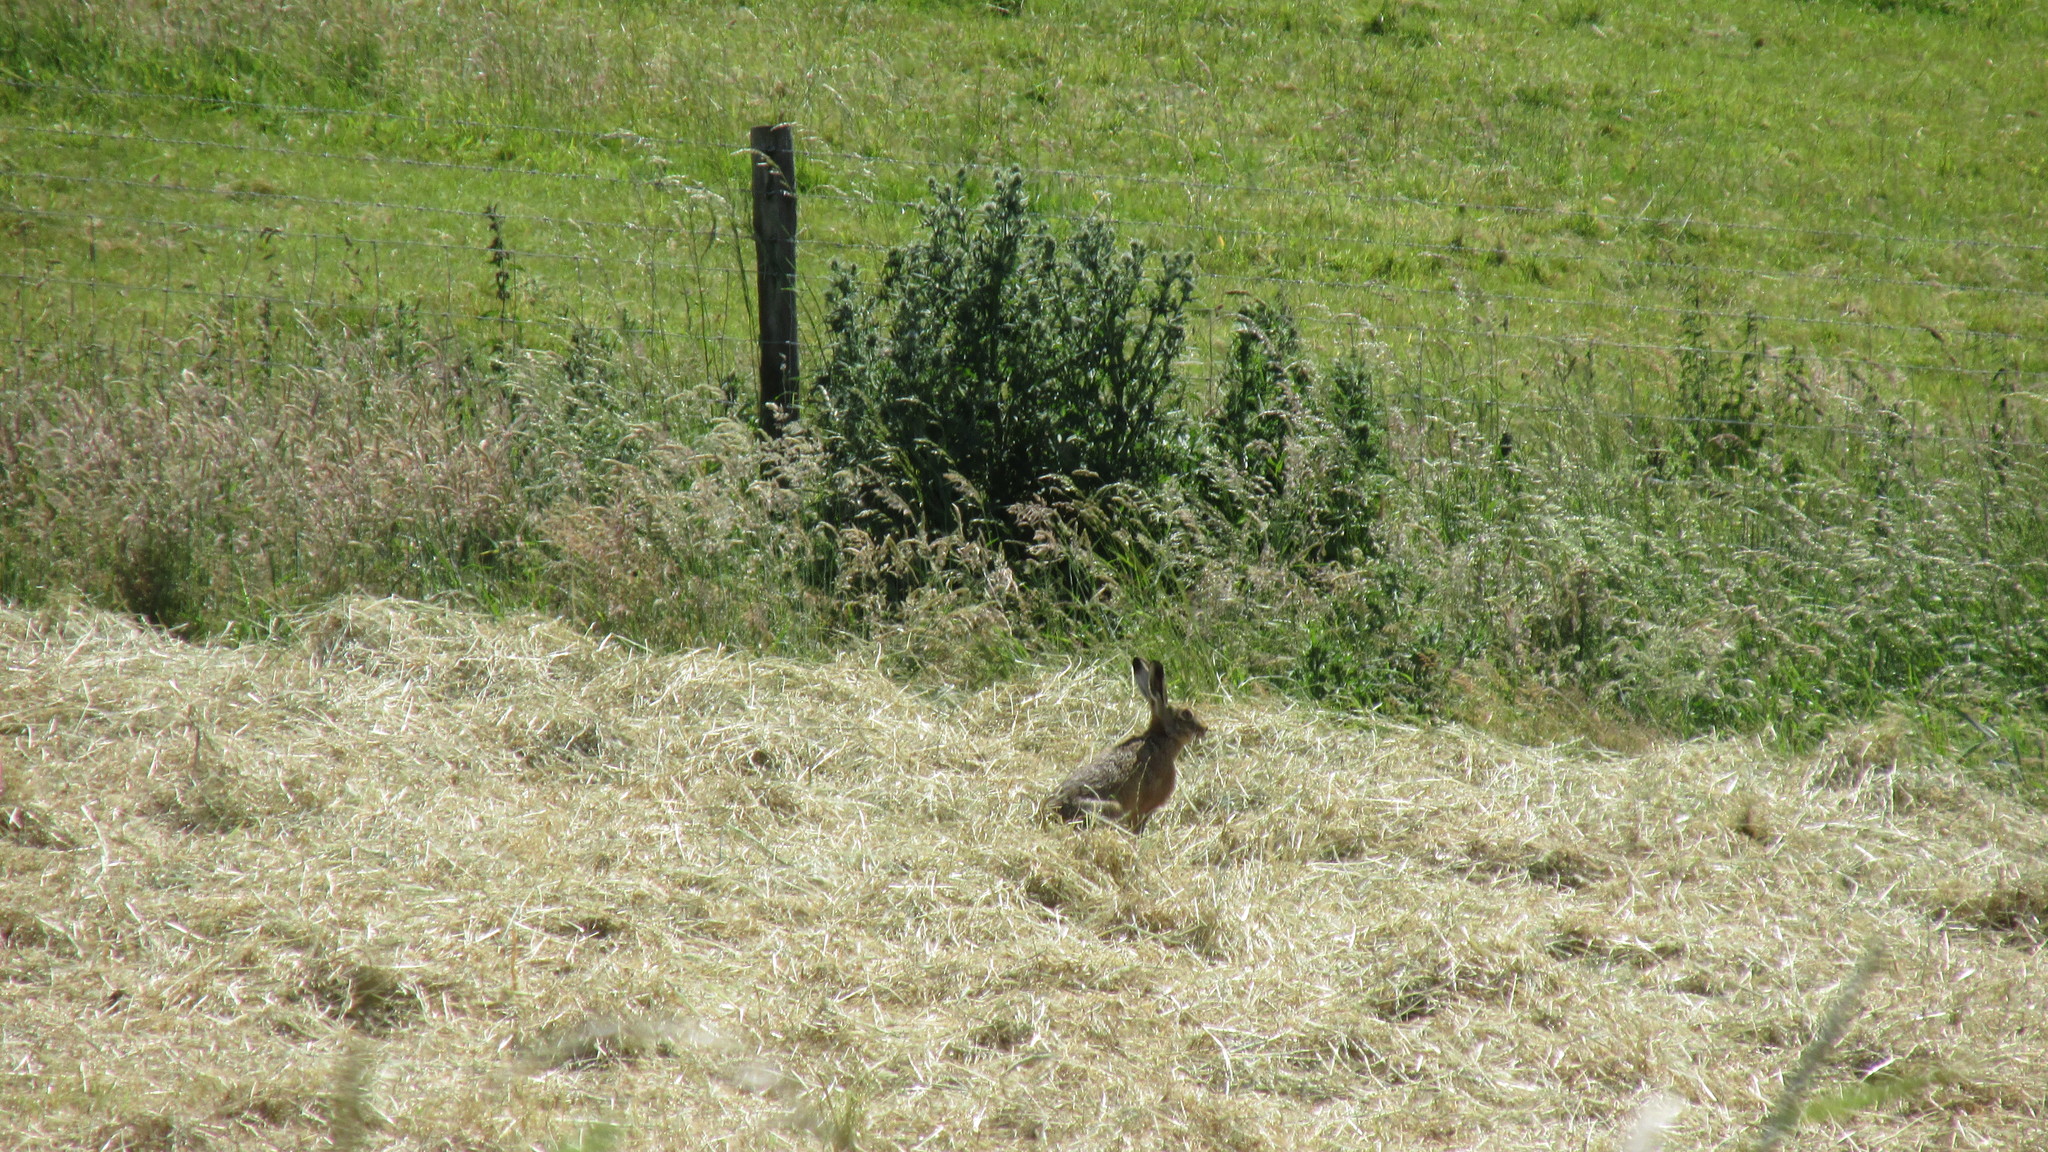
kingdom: Animalia
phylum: Chordata
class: Mammalia
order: Lagomorpha
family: Leporidae
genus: Lepus
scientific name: Lepus europaeus
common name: European hare
